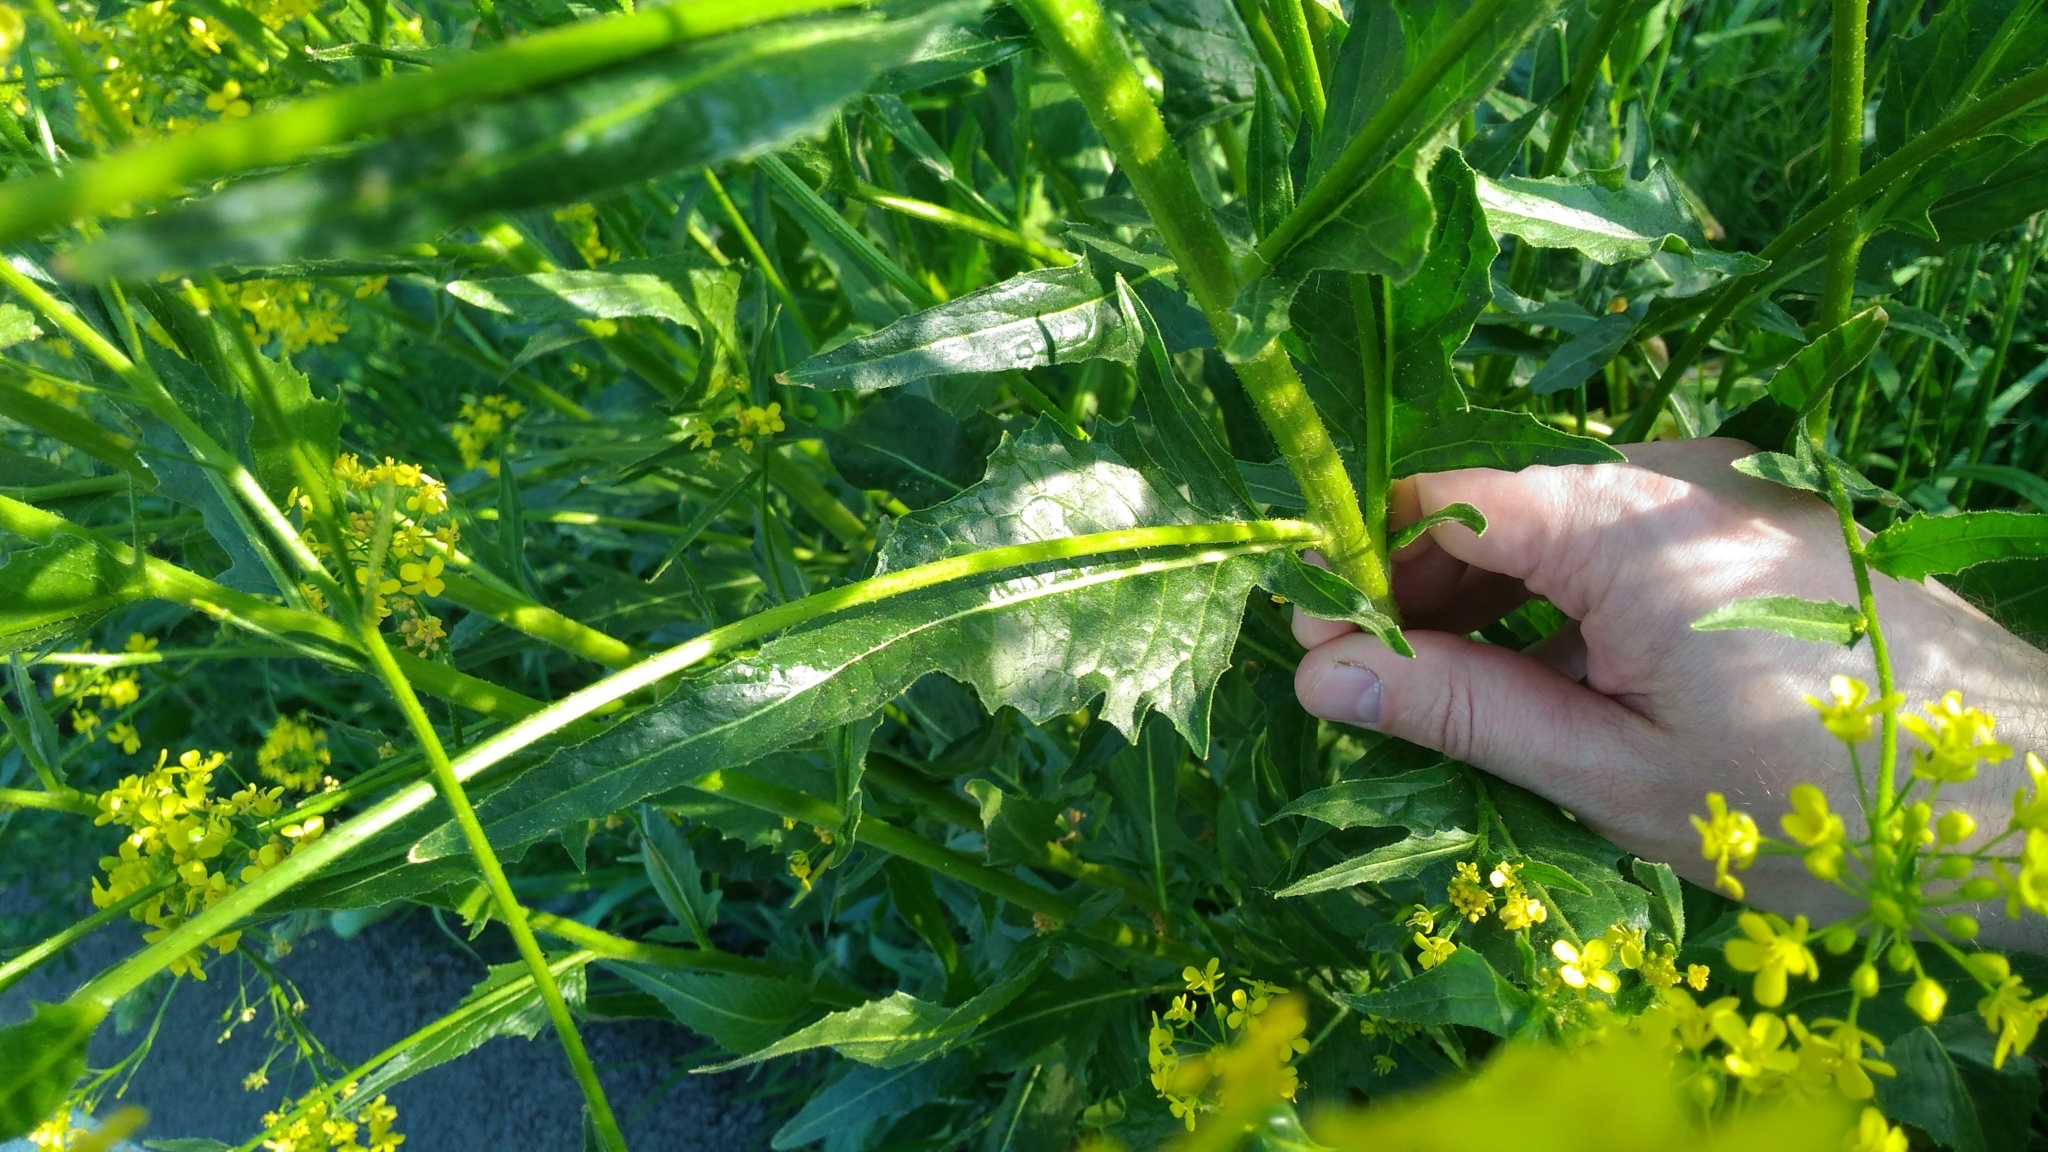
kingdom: Plantae
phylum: Tracheophyta
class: Magnoliopsida
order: Brassicales
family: Brassicaceae
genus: Bunias
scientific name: Bunias orientalis
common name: Warty-cabbage
